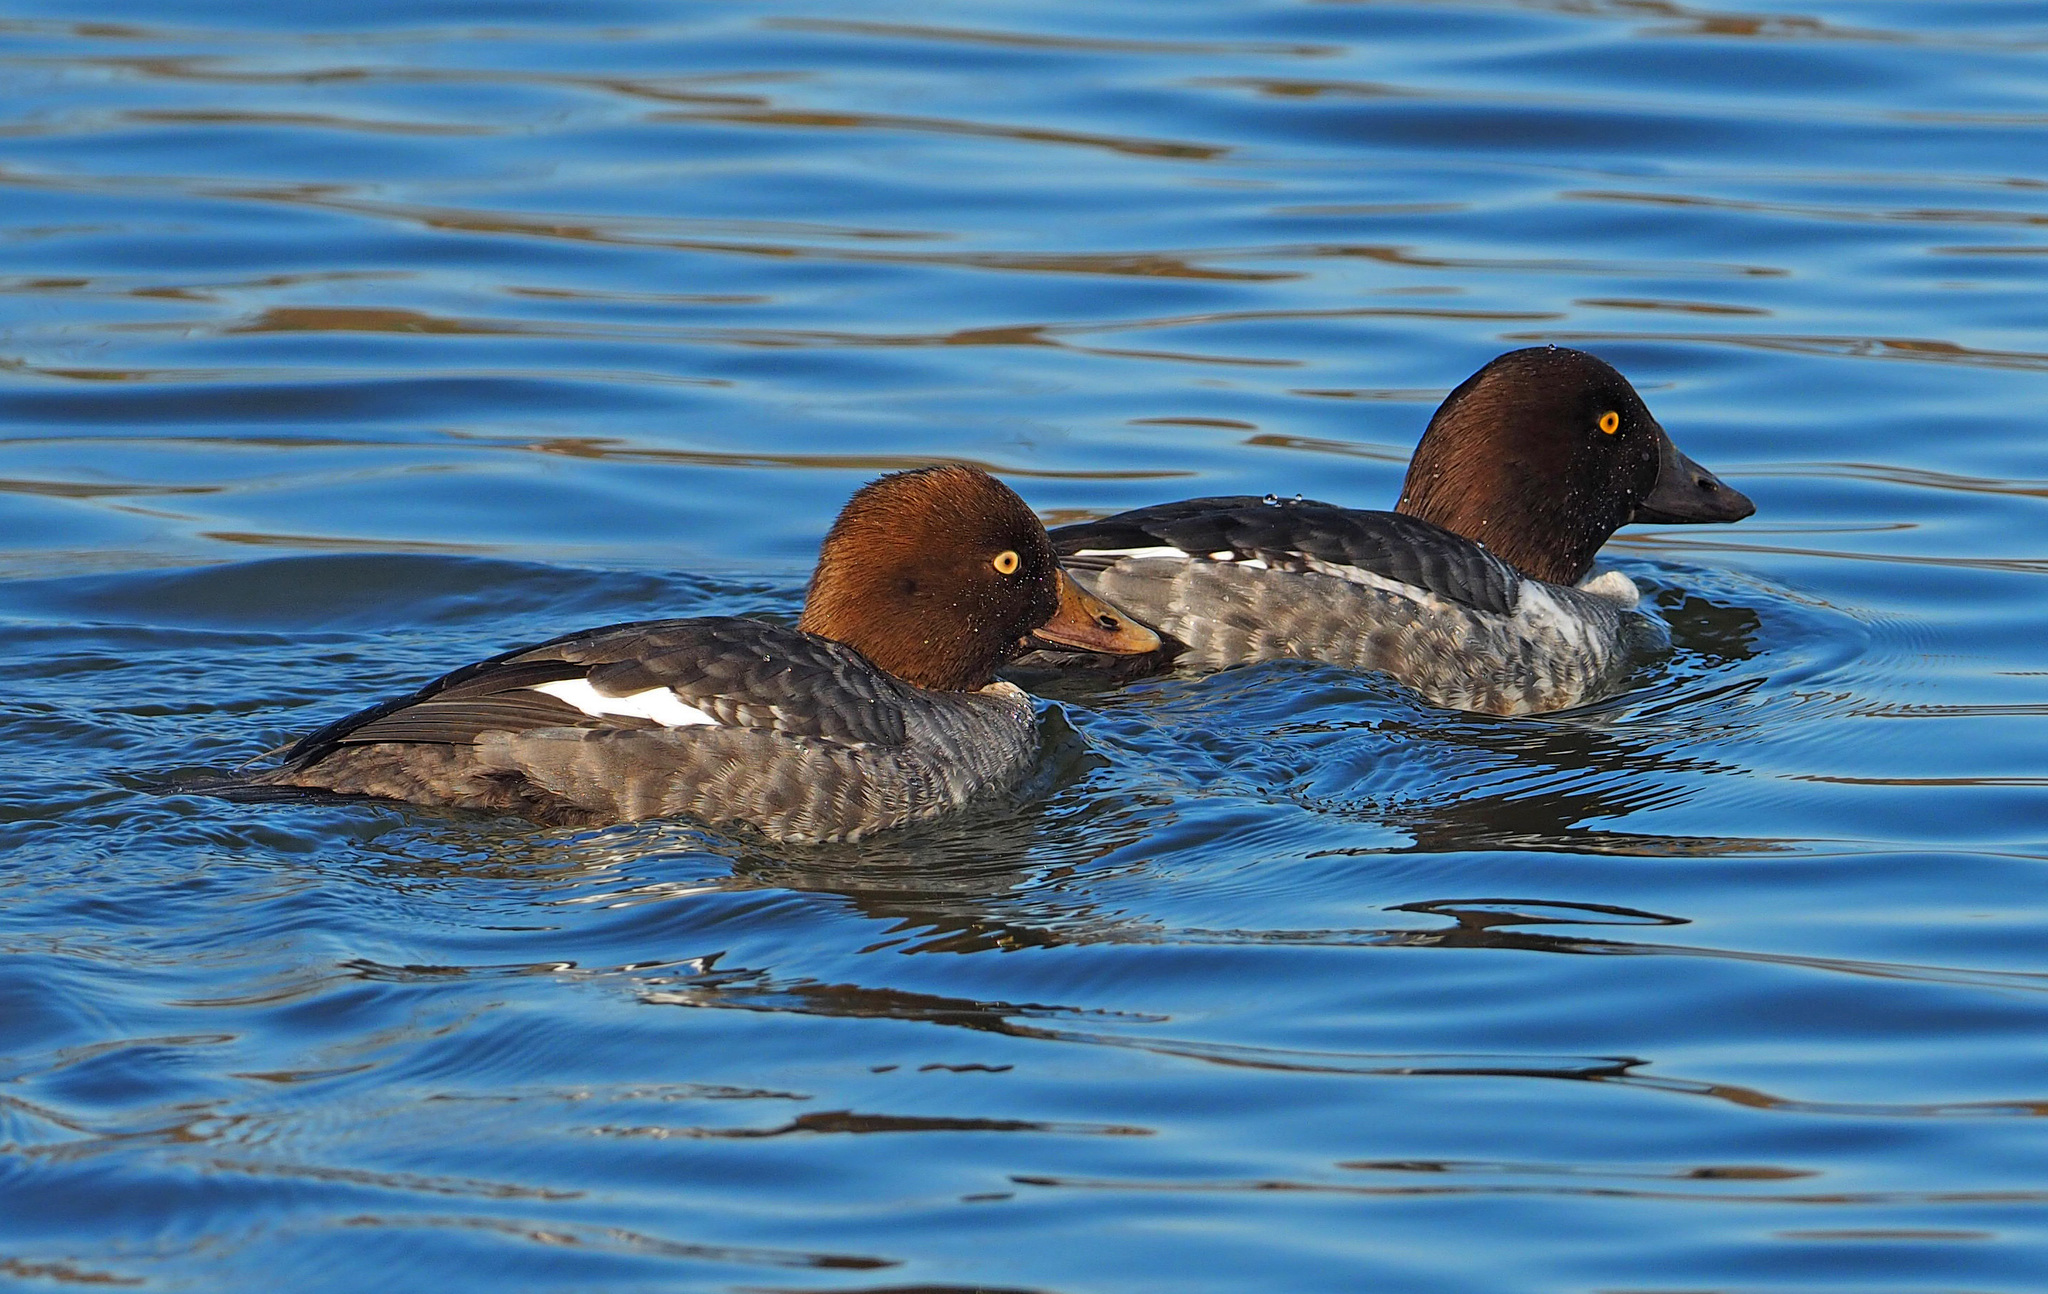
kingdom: Animalia
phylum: Chordata
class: Aves
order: Anseriformes
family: Anatidae
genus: Bucephala
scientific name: Bucephala clangula
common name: Common goldeneye
